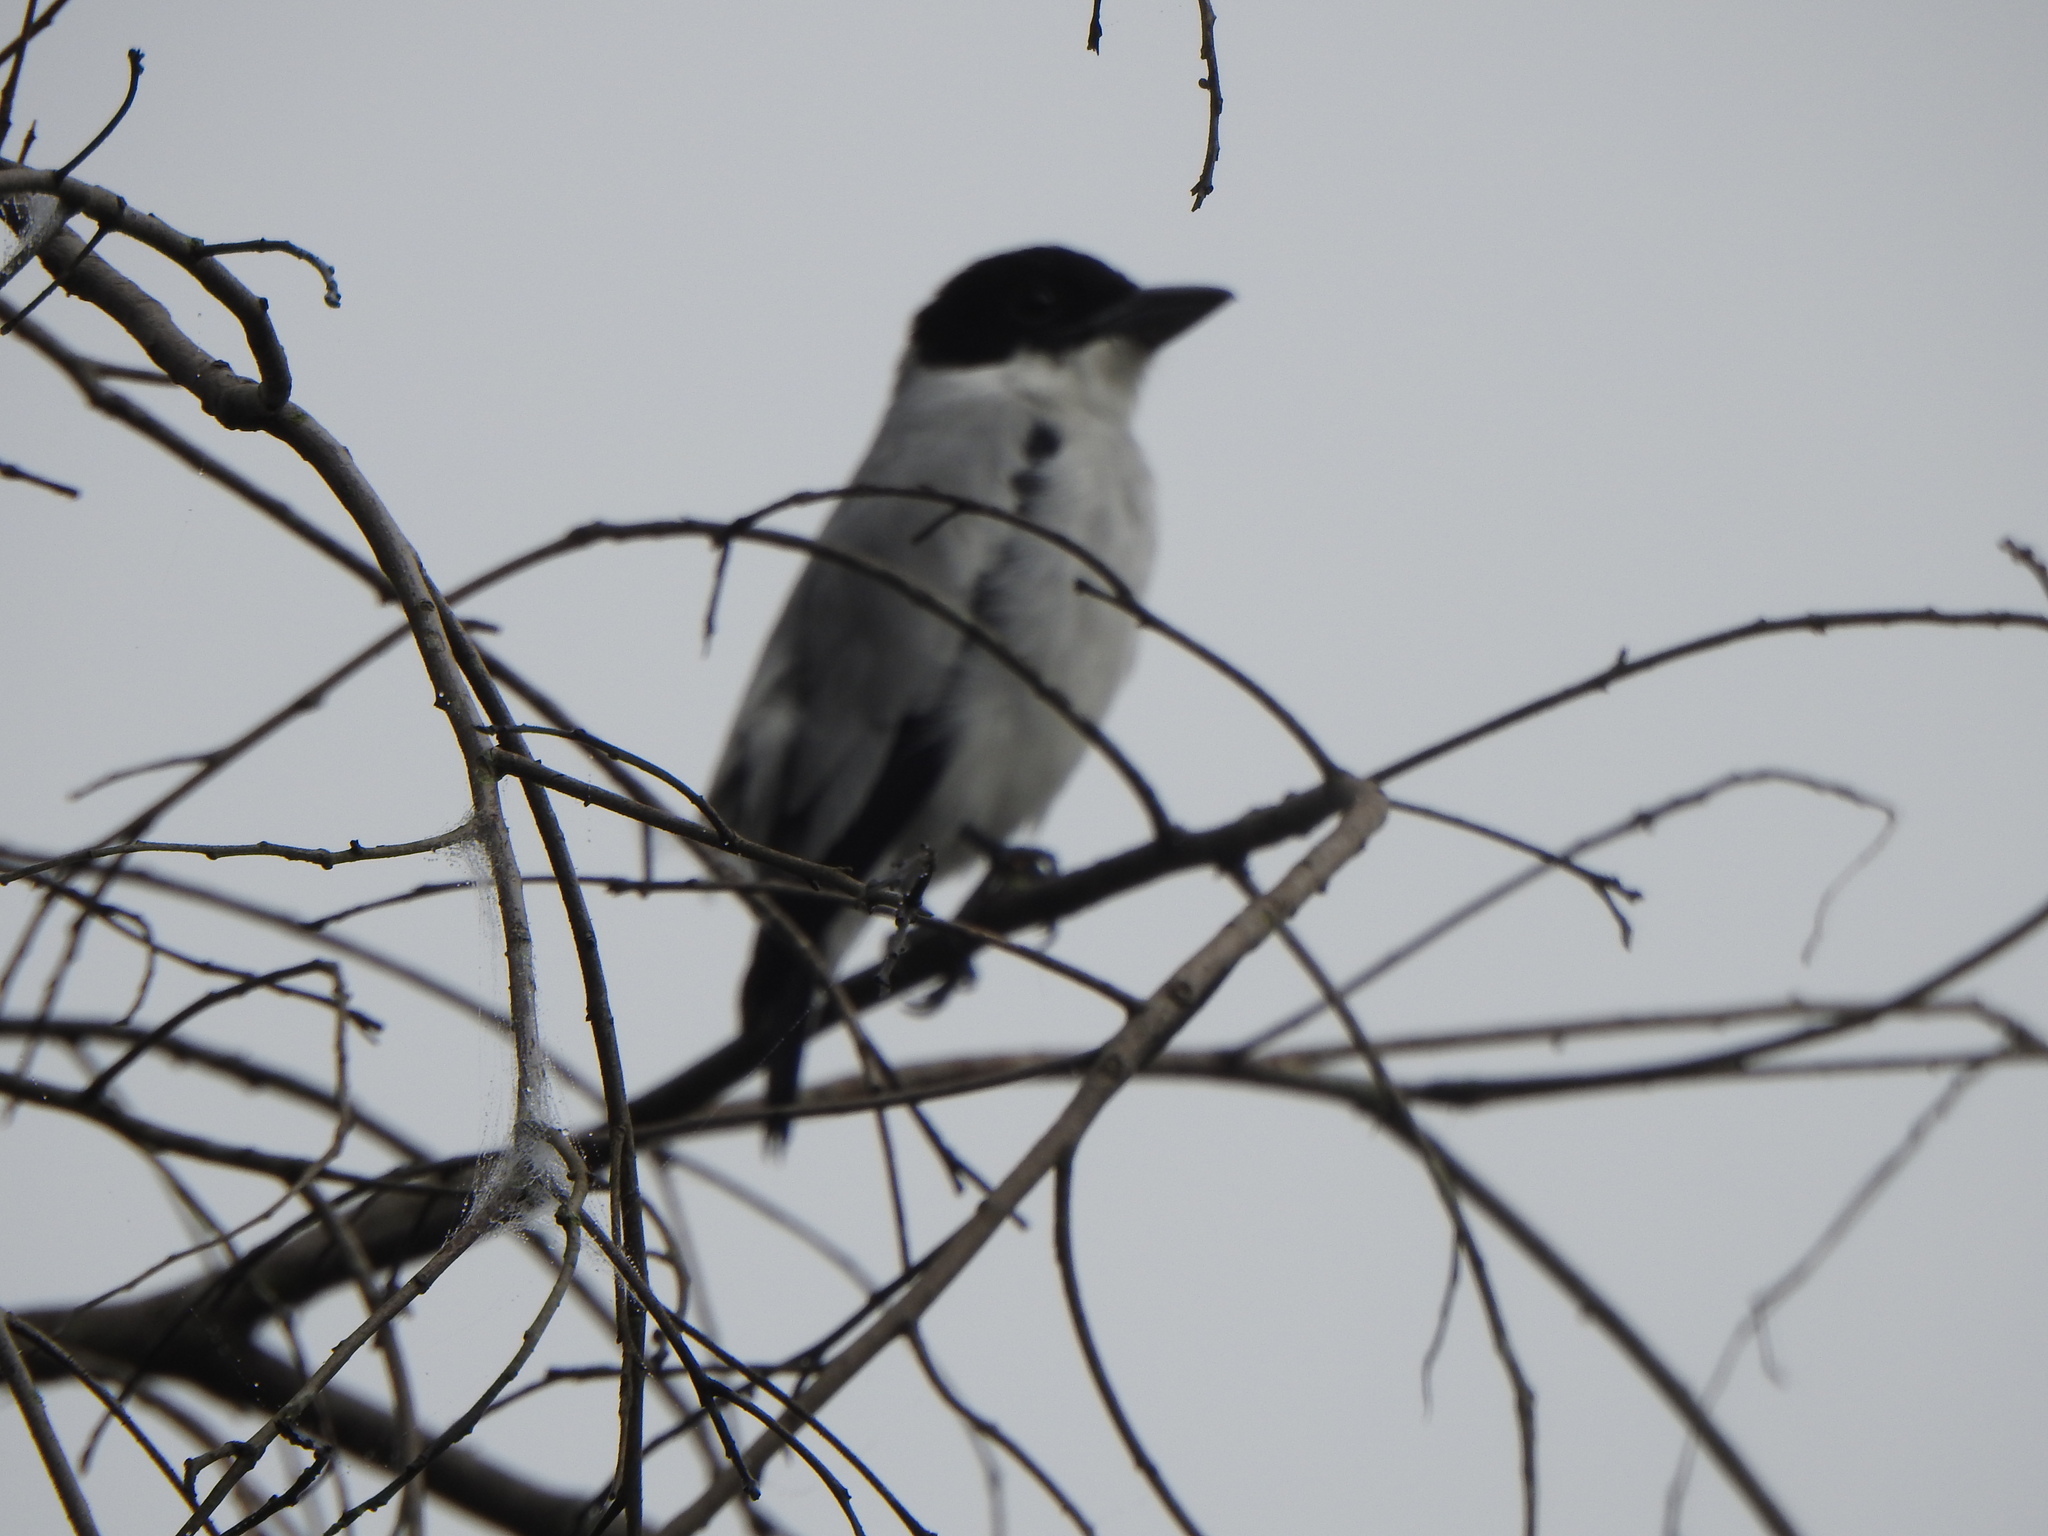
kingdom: Animalia
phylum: Chordata
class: Aves
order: Passeriformes
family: Cotingidae
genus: Tityra
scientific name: Tityra inquisitor
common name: Black-crowned tityra
